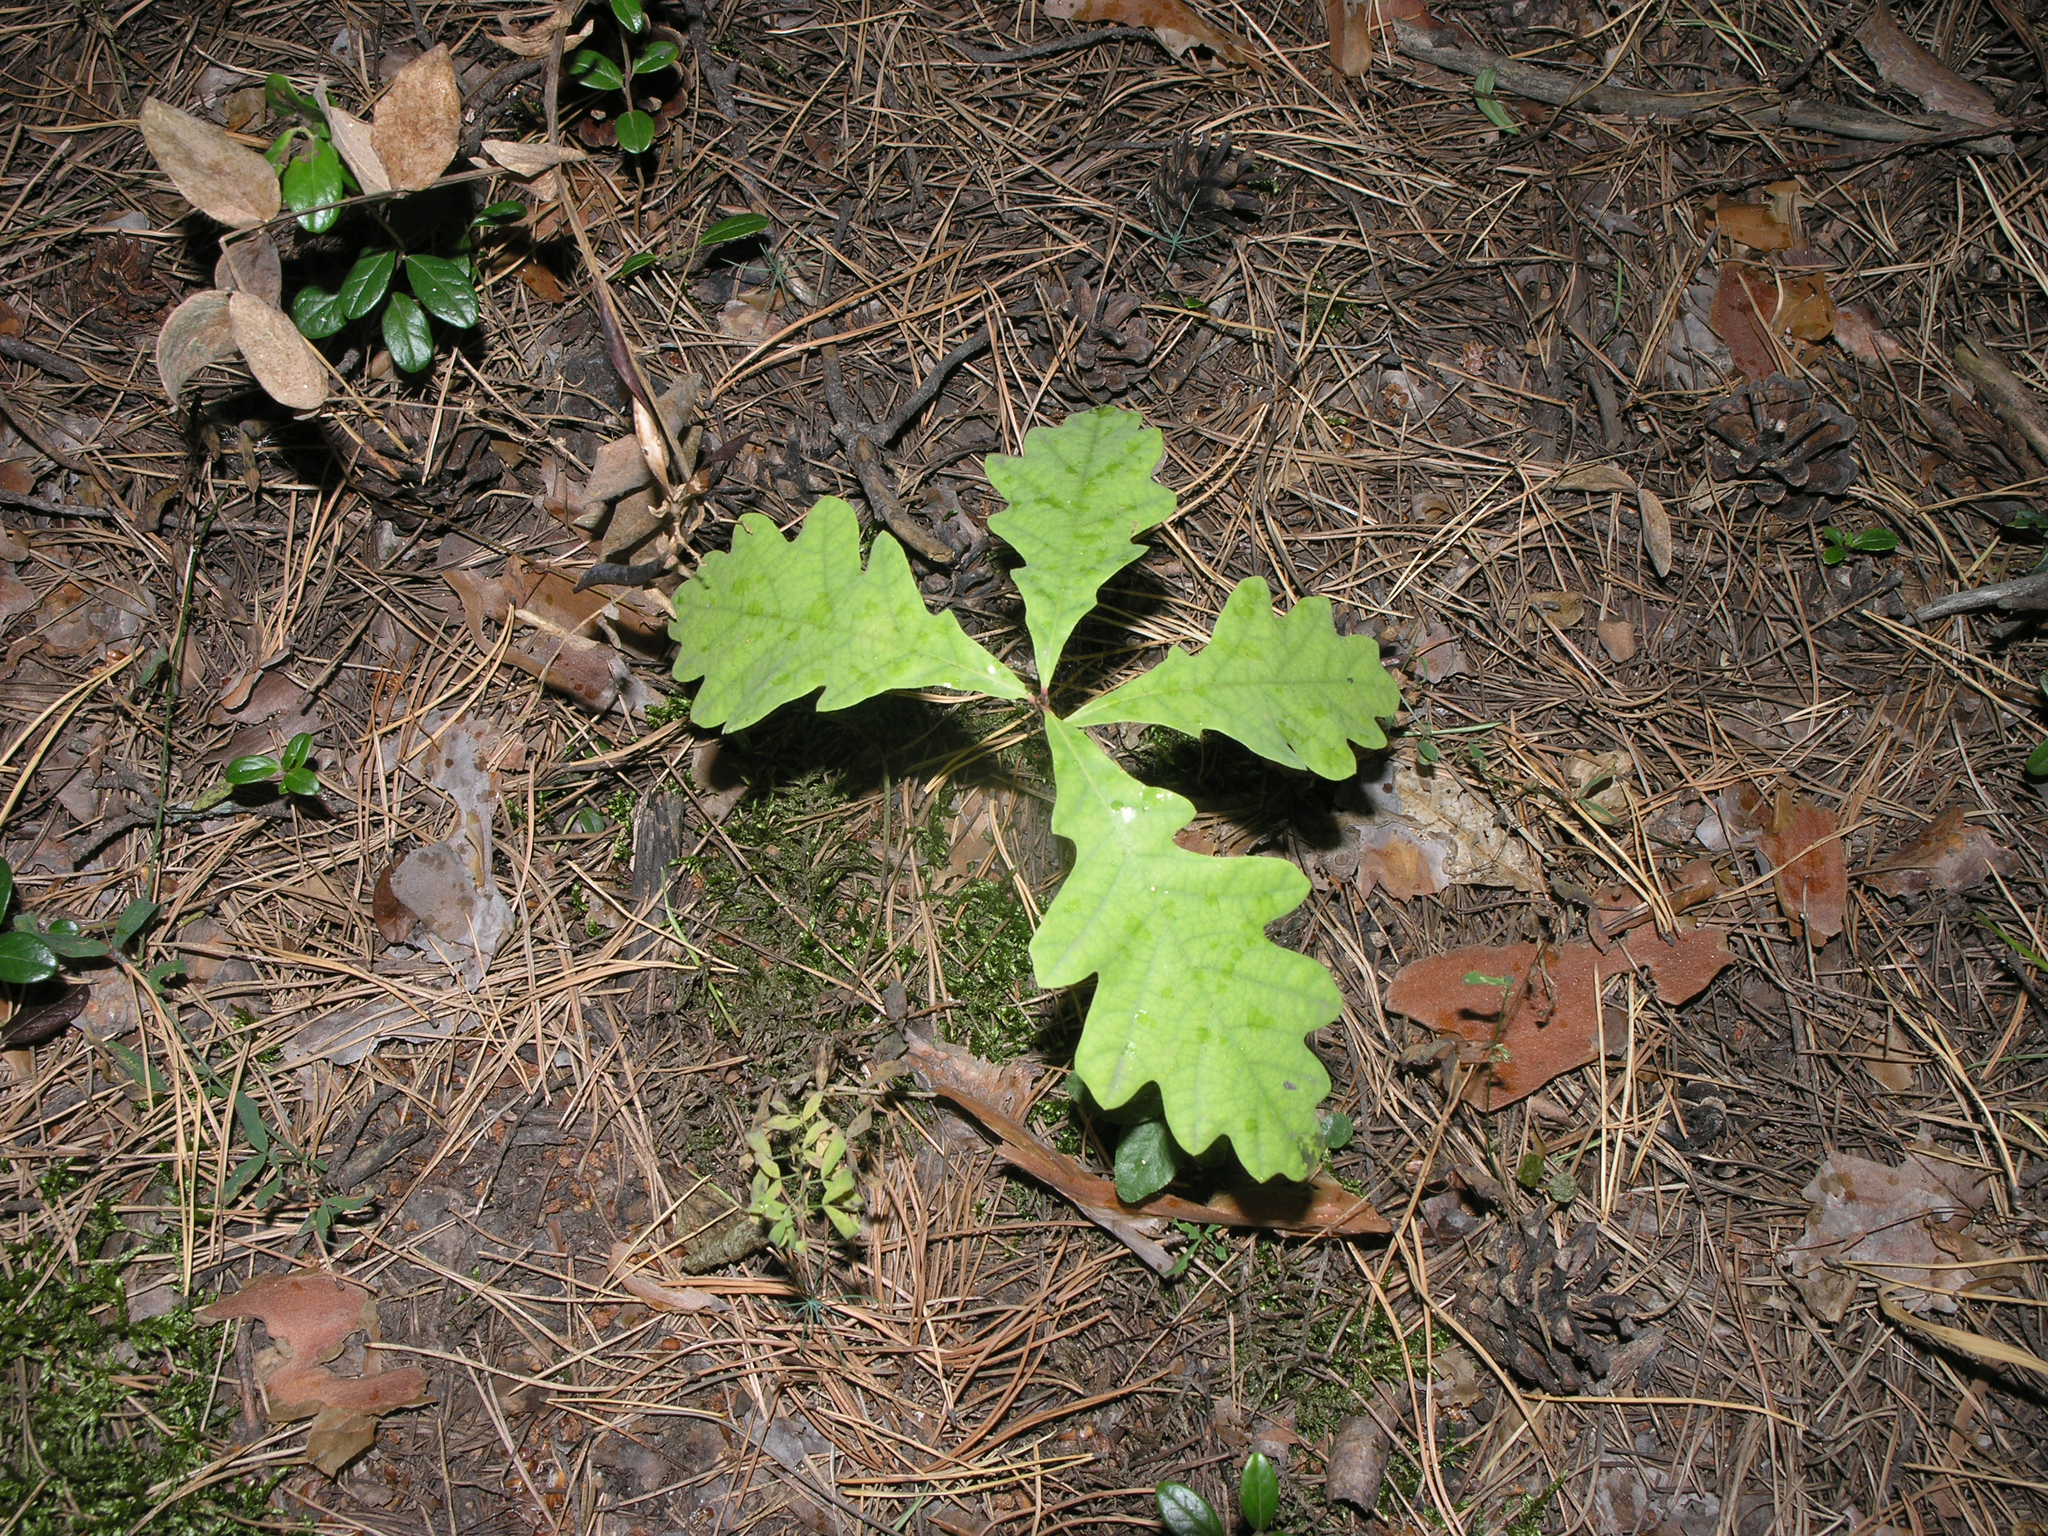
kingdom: Plantae
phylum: Tracheophyta
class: Magnoliopsida
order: Fagales
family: Fagaceae
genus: Quercus
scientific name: Quercus robur
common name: Pedunculate oak
